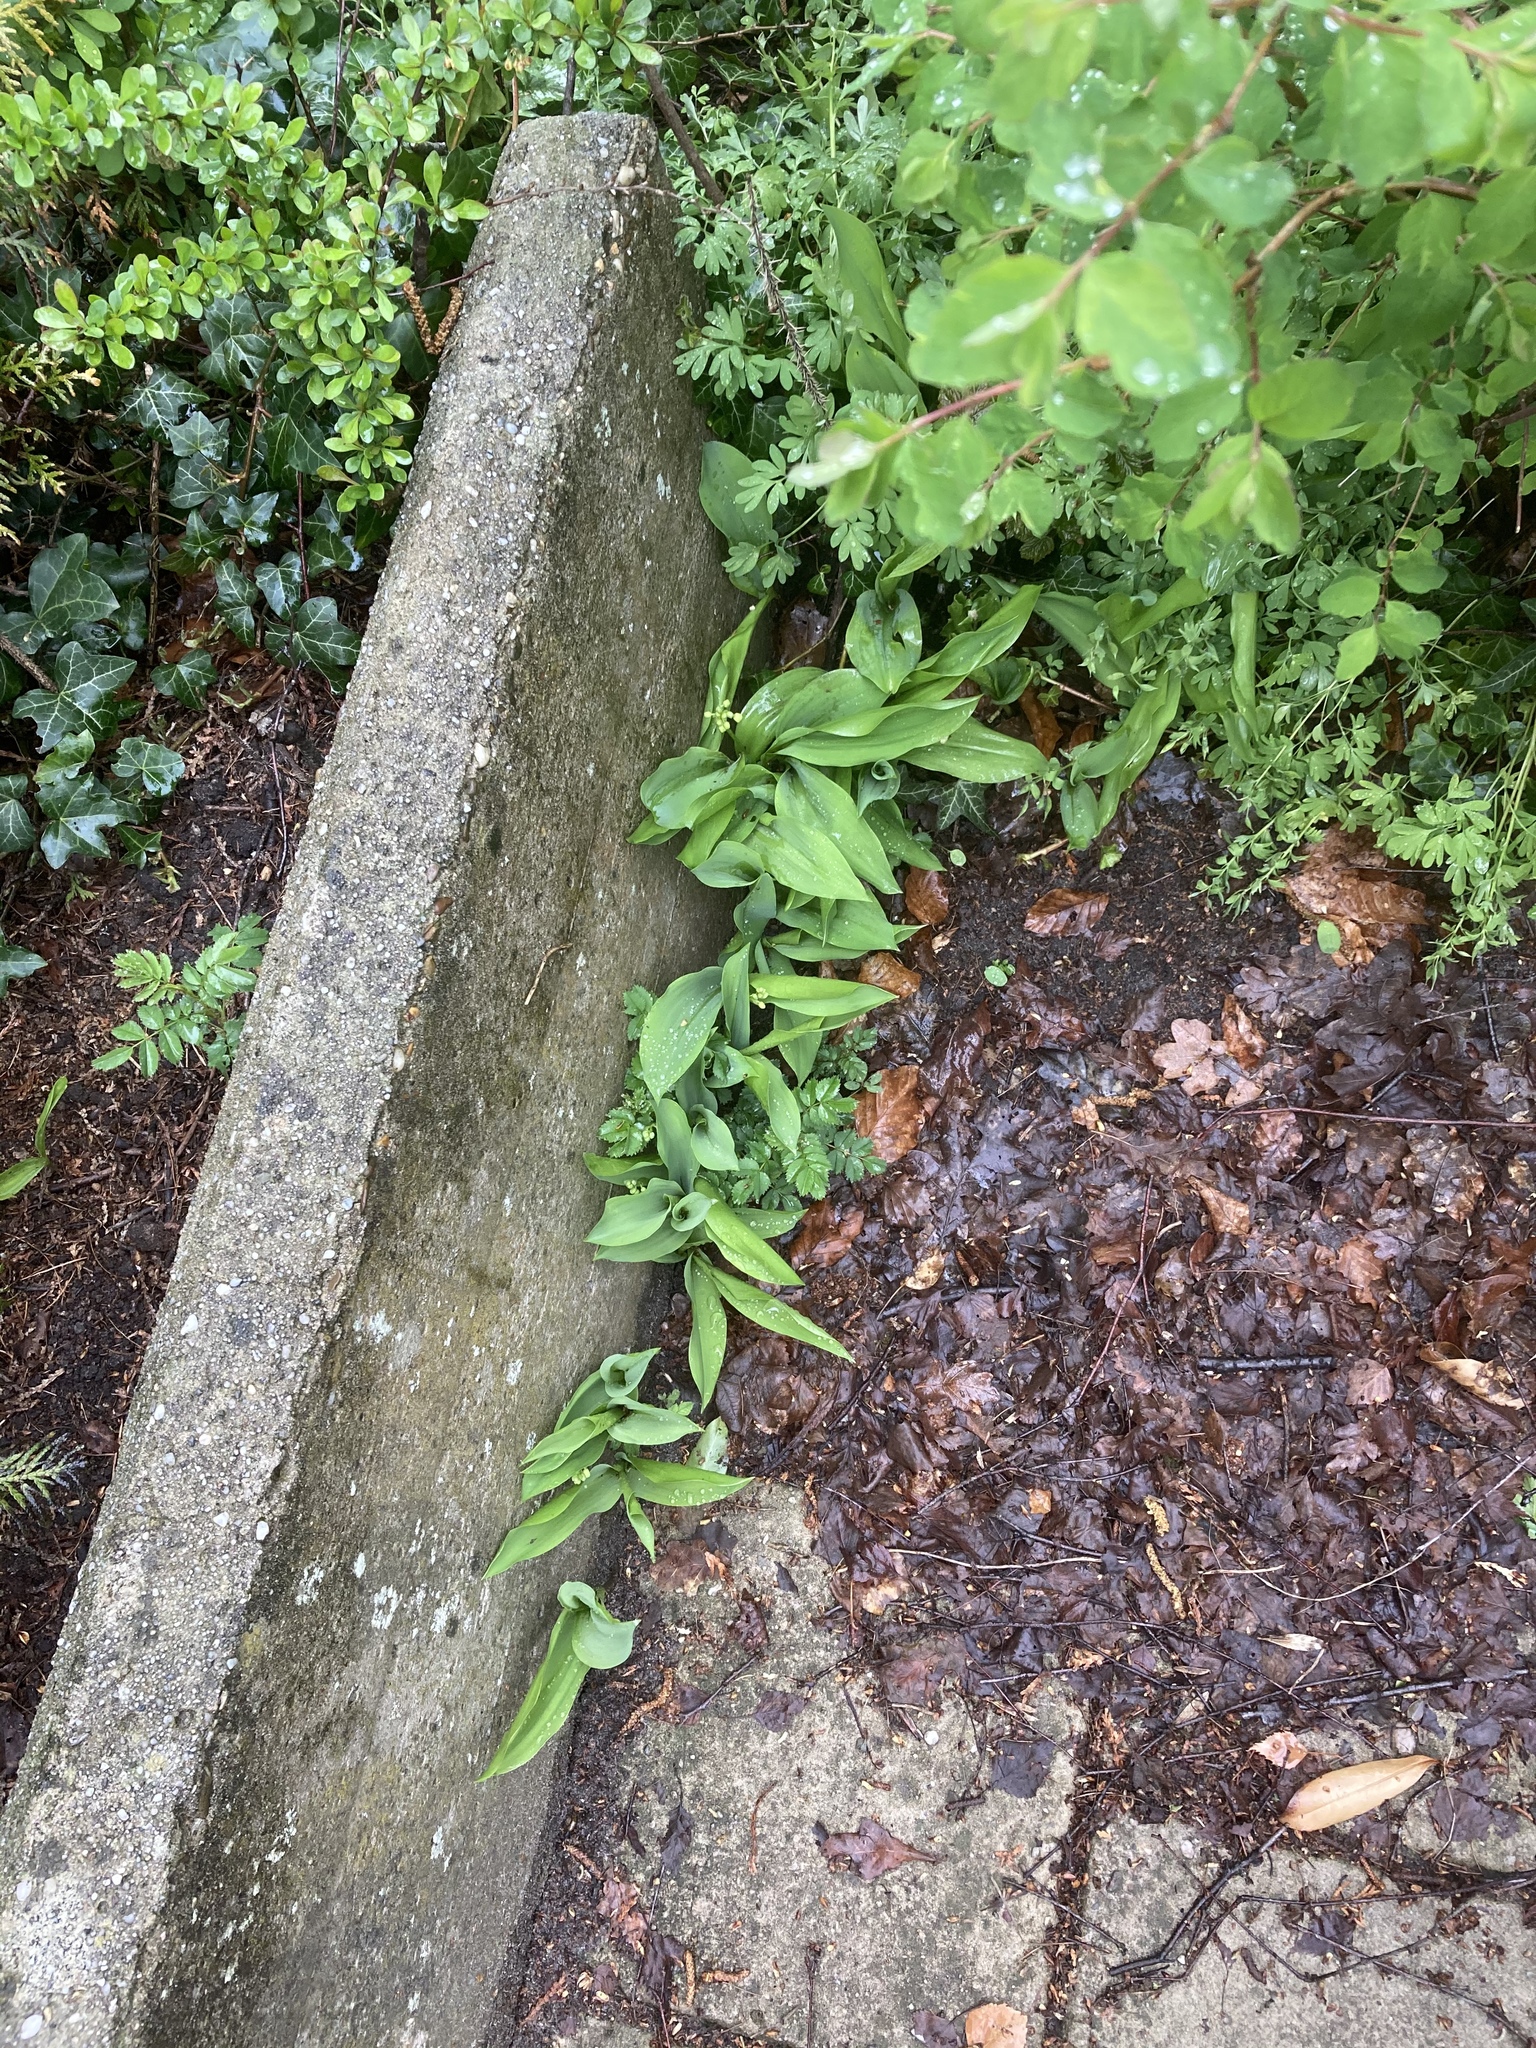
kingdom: Plantae
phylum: Tracheophyta
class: Liliopsida
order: Asparagales
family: Asparagaceae
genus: Convallaria
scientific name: Convallaria majalis
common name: Lily-of-the-valley
